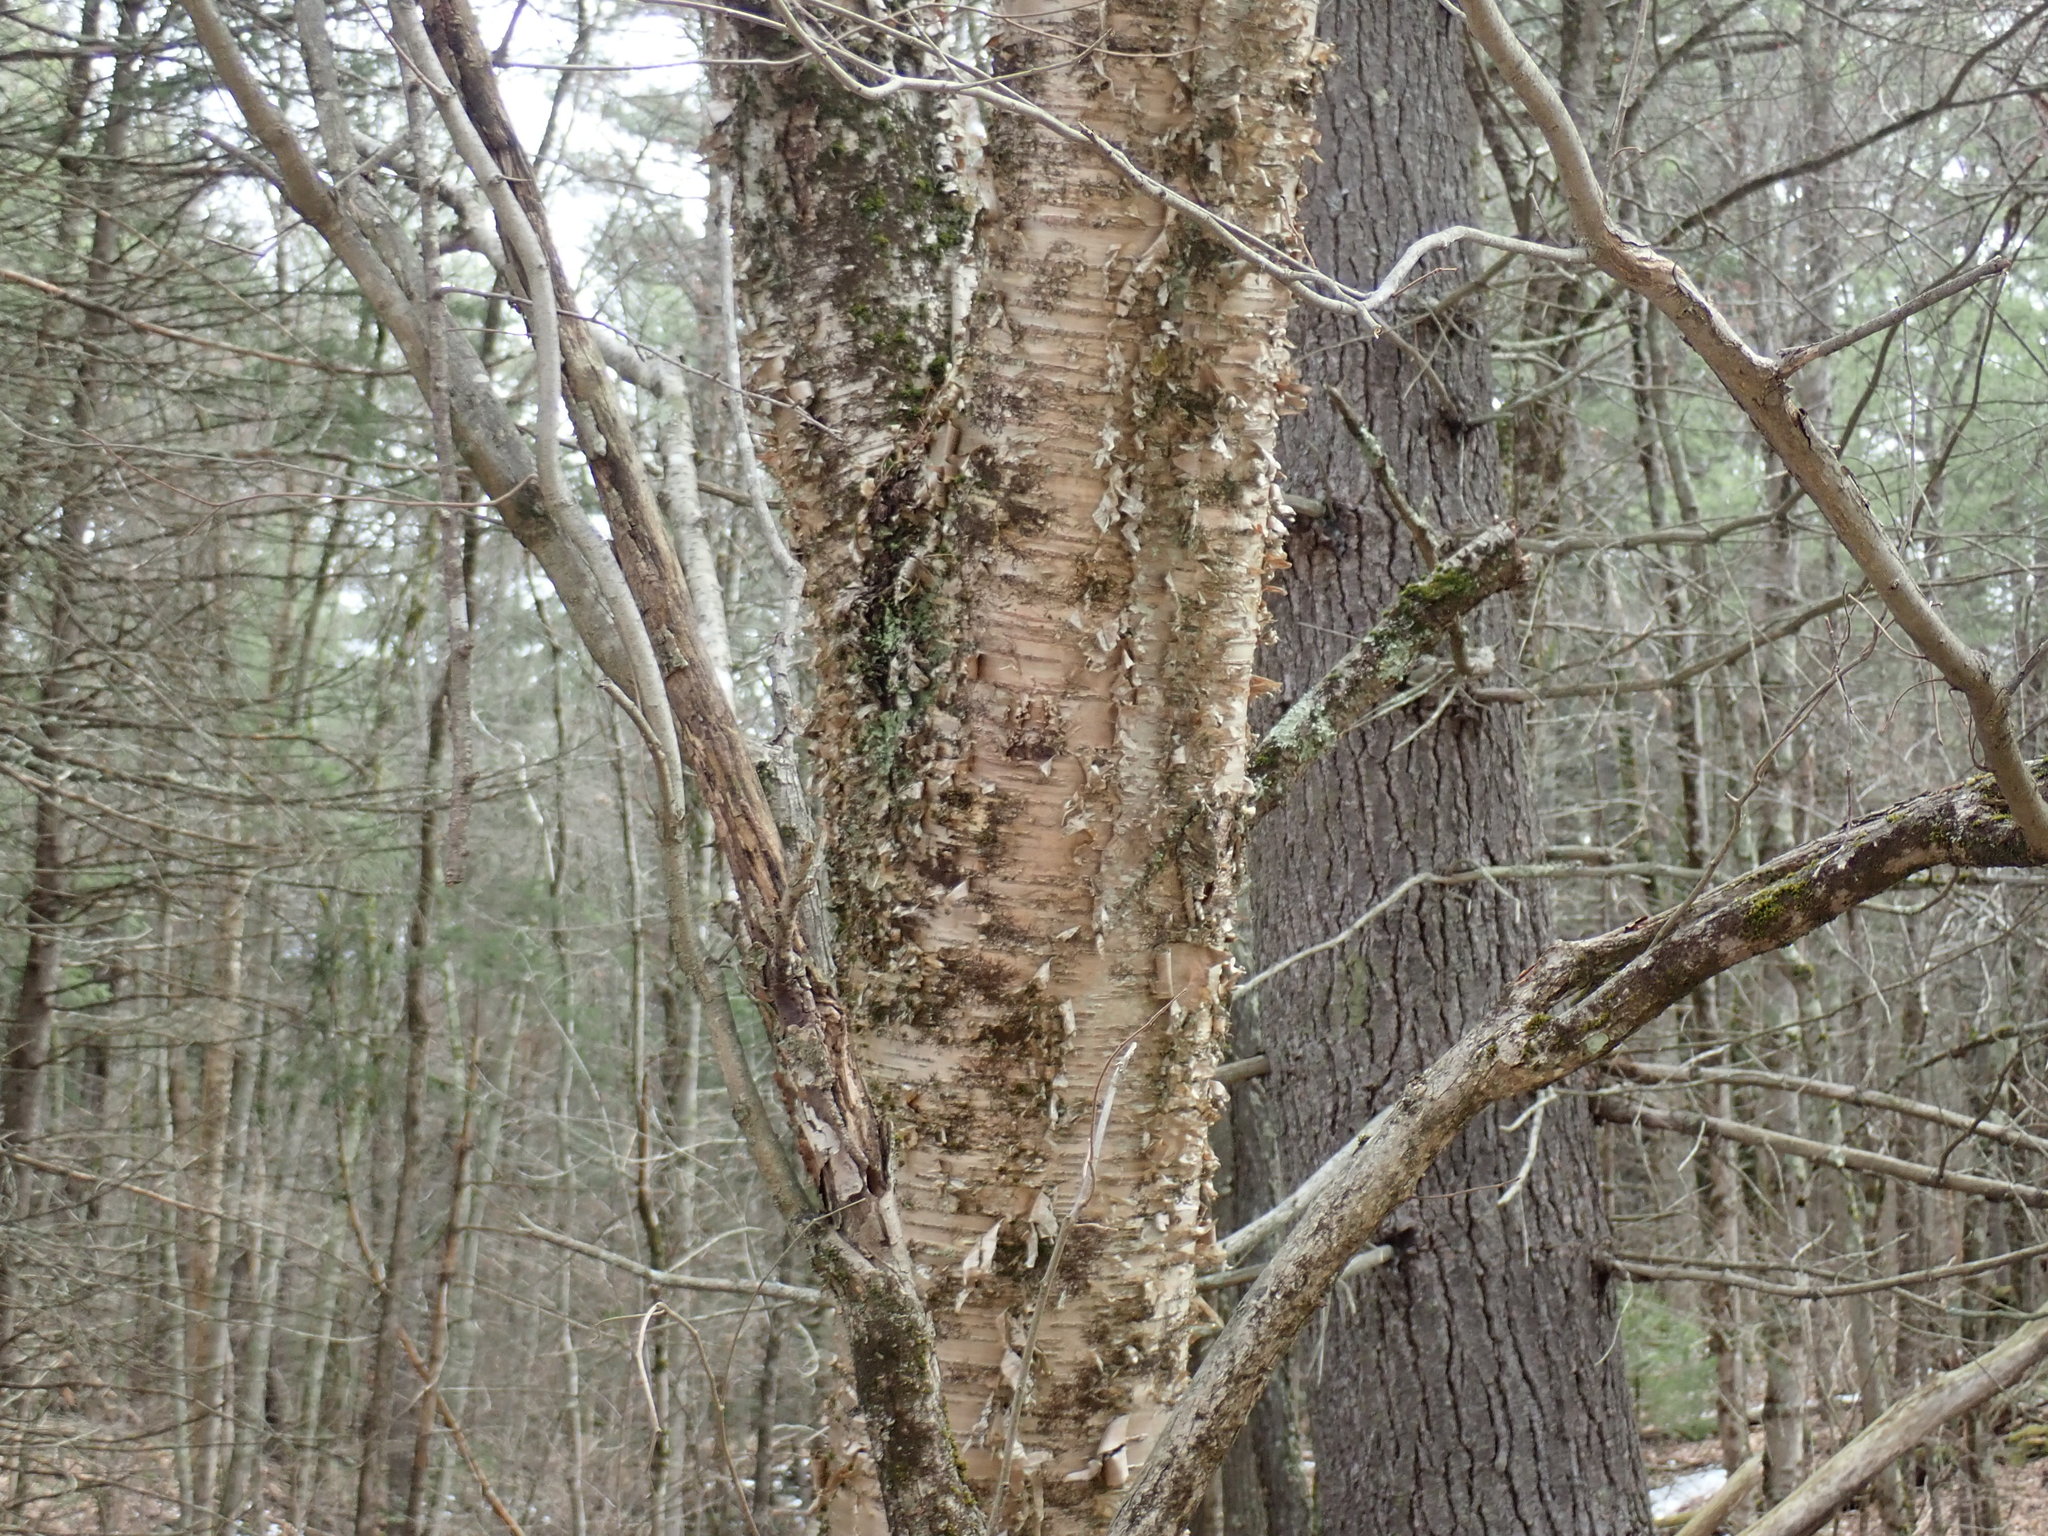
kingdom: Plantae
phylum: Tracheophyta
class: Magnoliopsida
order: Fagales
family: Betulaceae
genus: Betula
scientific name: Betula alleghaniensis
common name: Yellow birch
